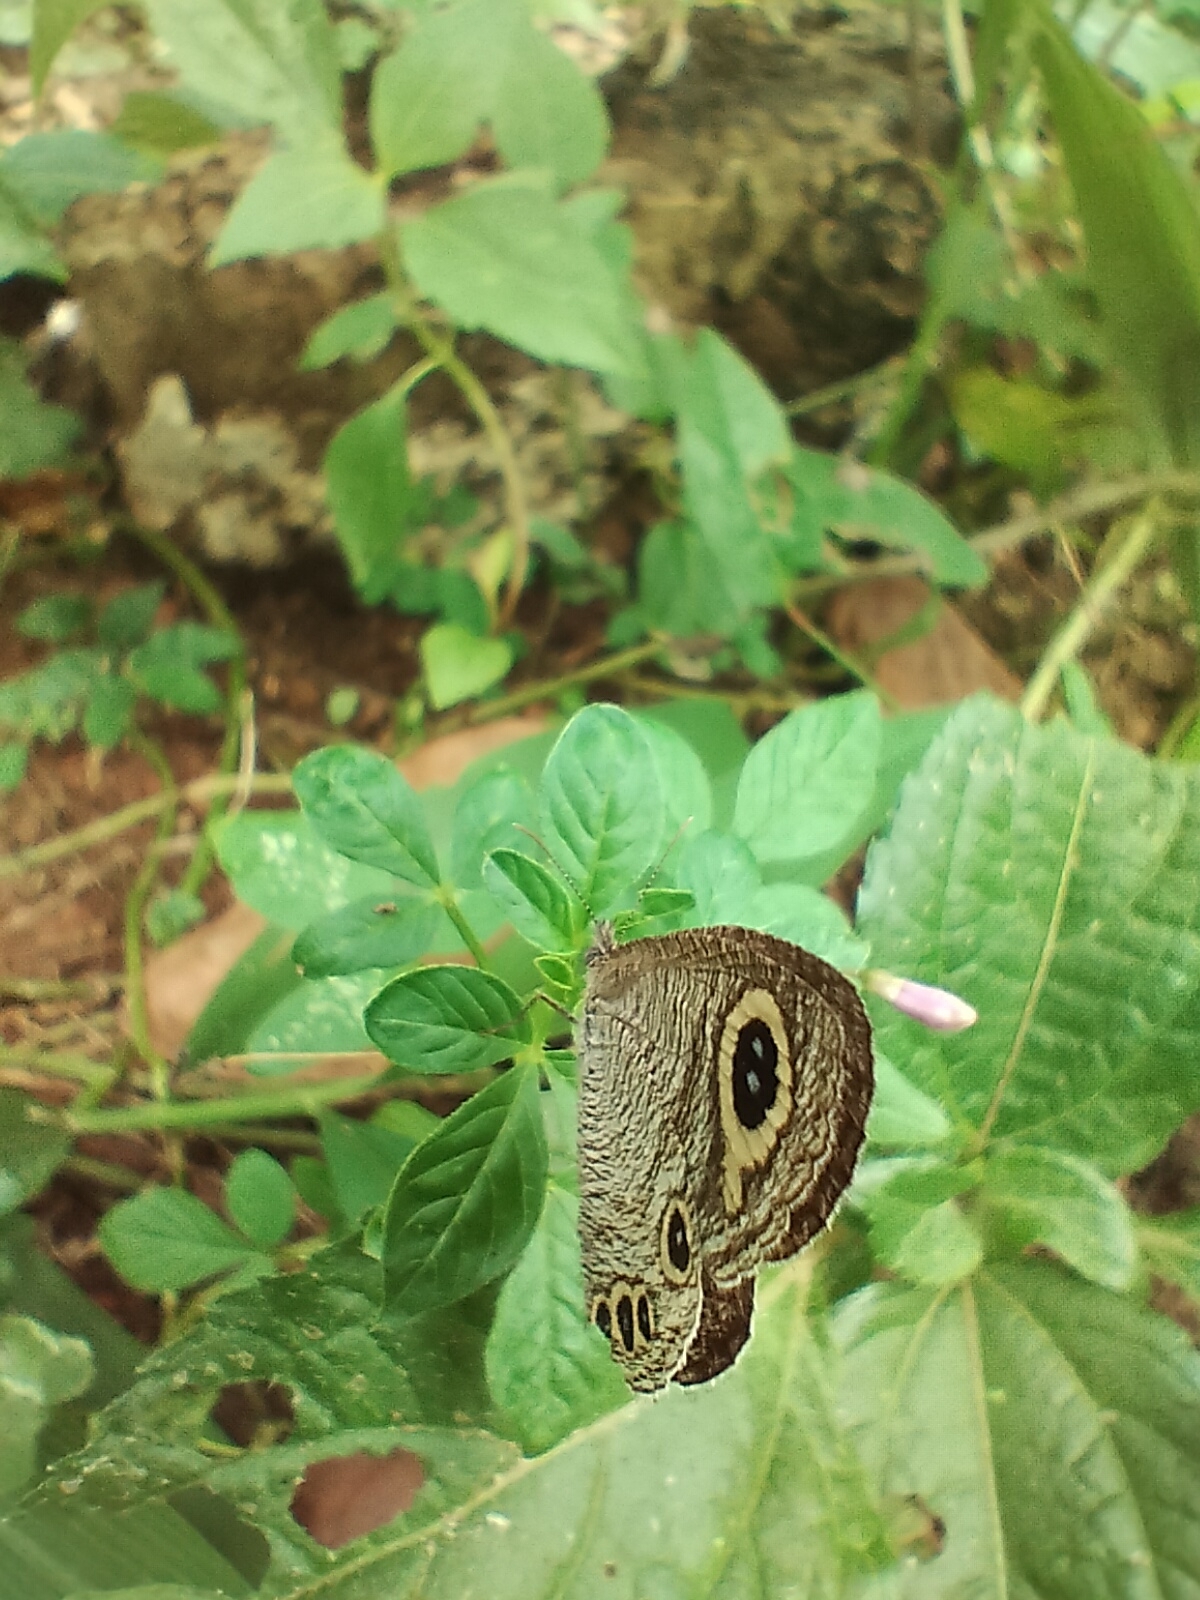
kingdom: Animalia
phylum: Arthropoda
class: Insecta
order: Lepidoptera
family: Nymphalidae
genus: Ypthima
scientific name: Ypthima huebneri
